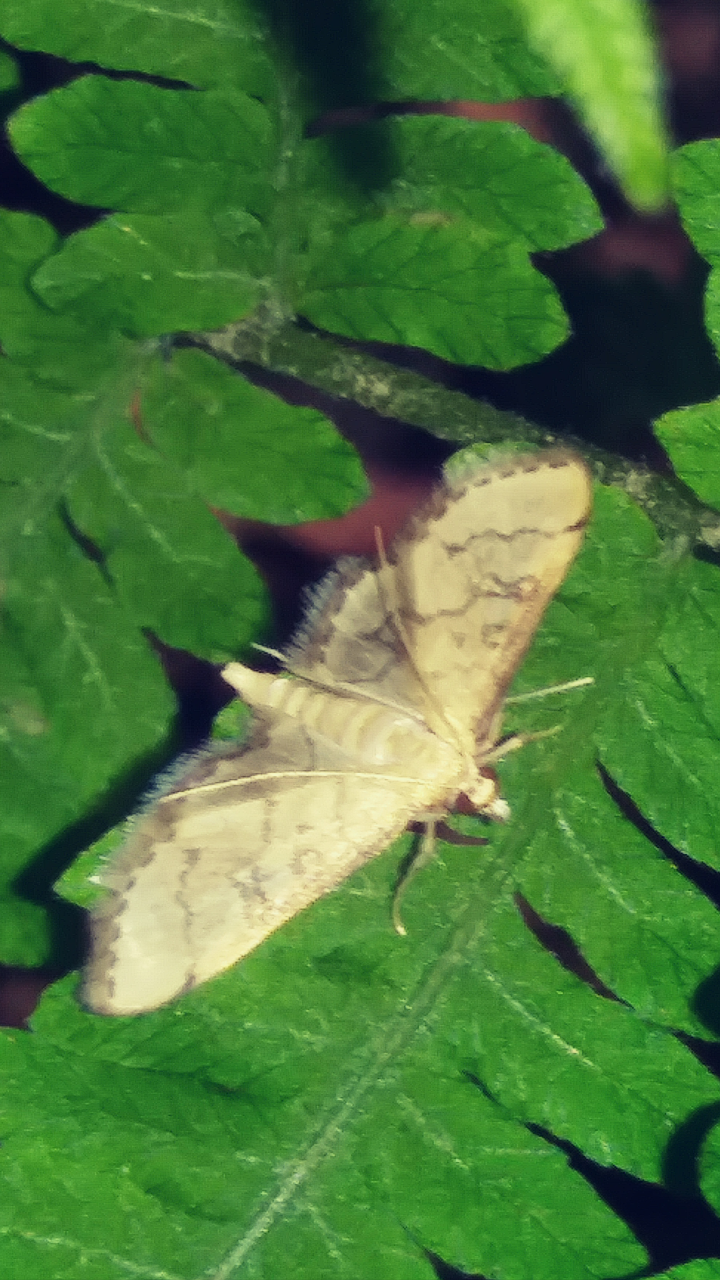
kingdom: Animalia
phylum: Arthropoda
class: Insecta
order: Lepidoptera
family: Crambidae
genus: Lamprosema
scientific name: Lamprosema Blepharomastix ranalis
